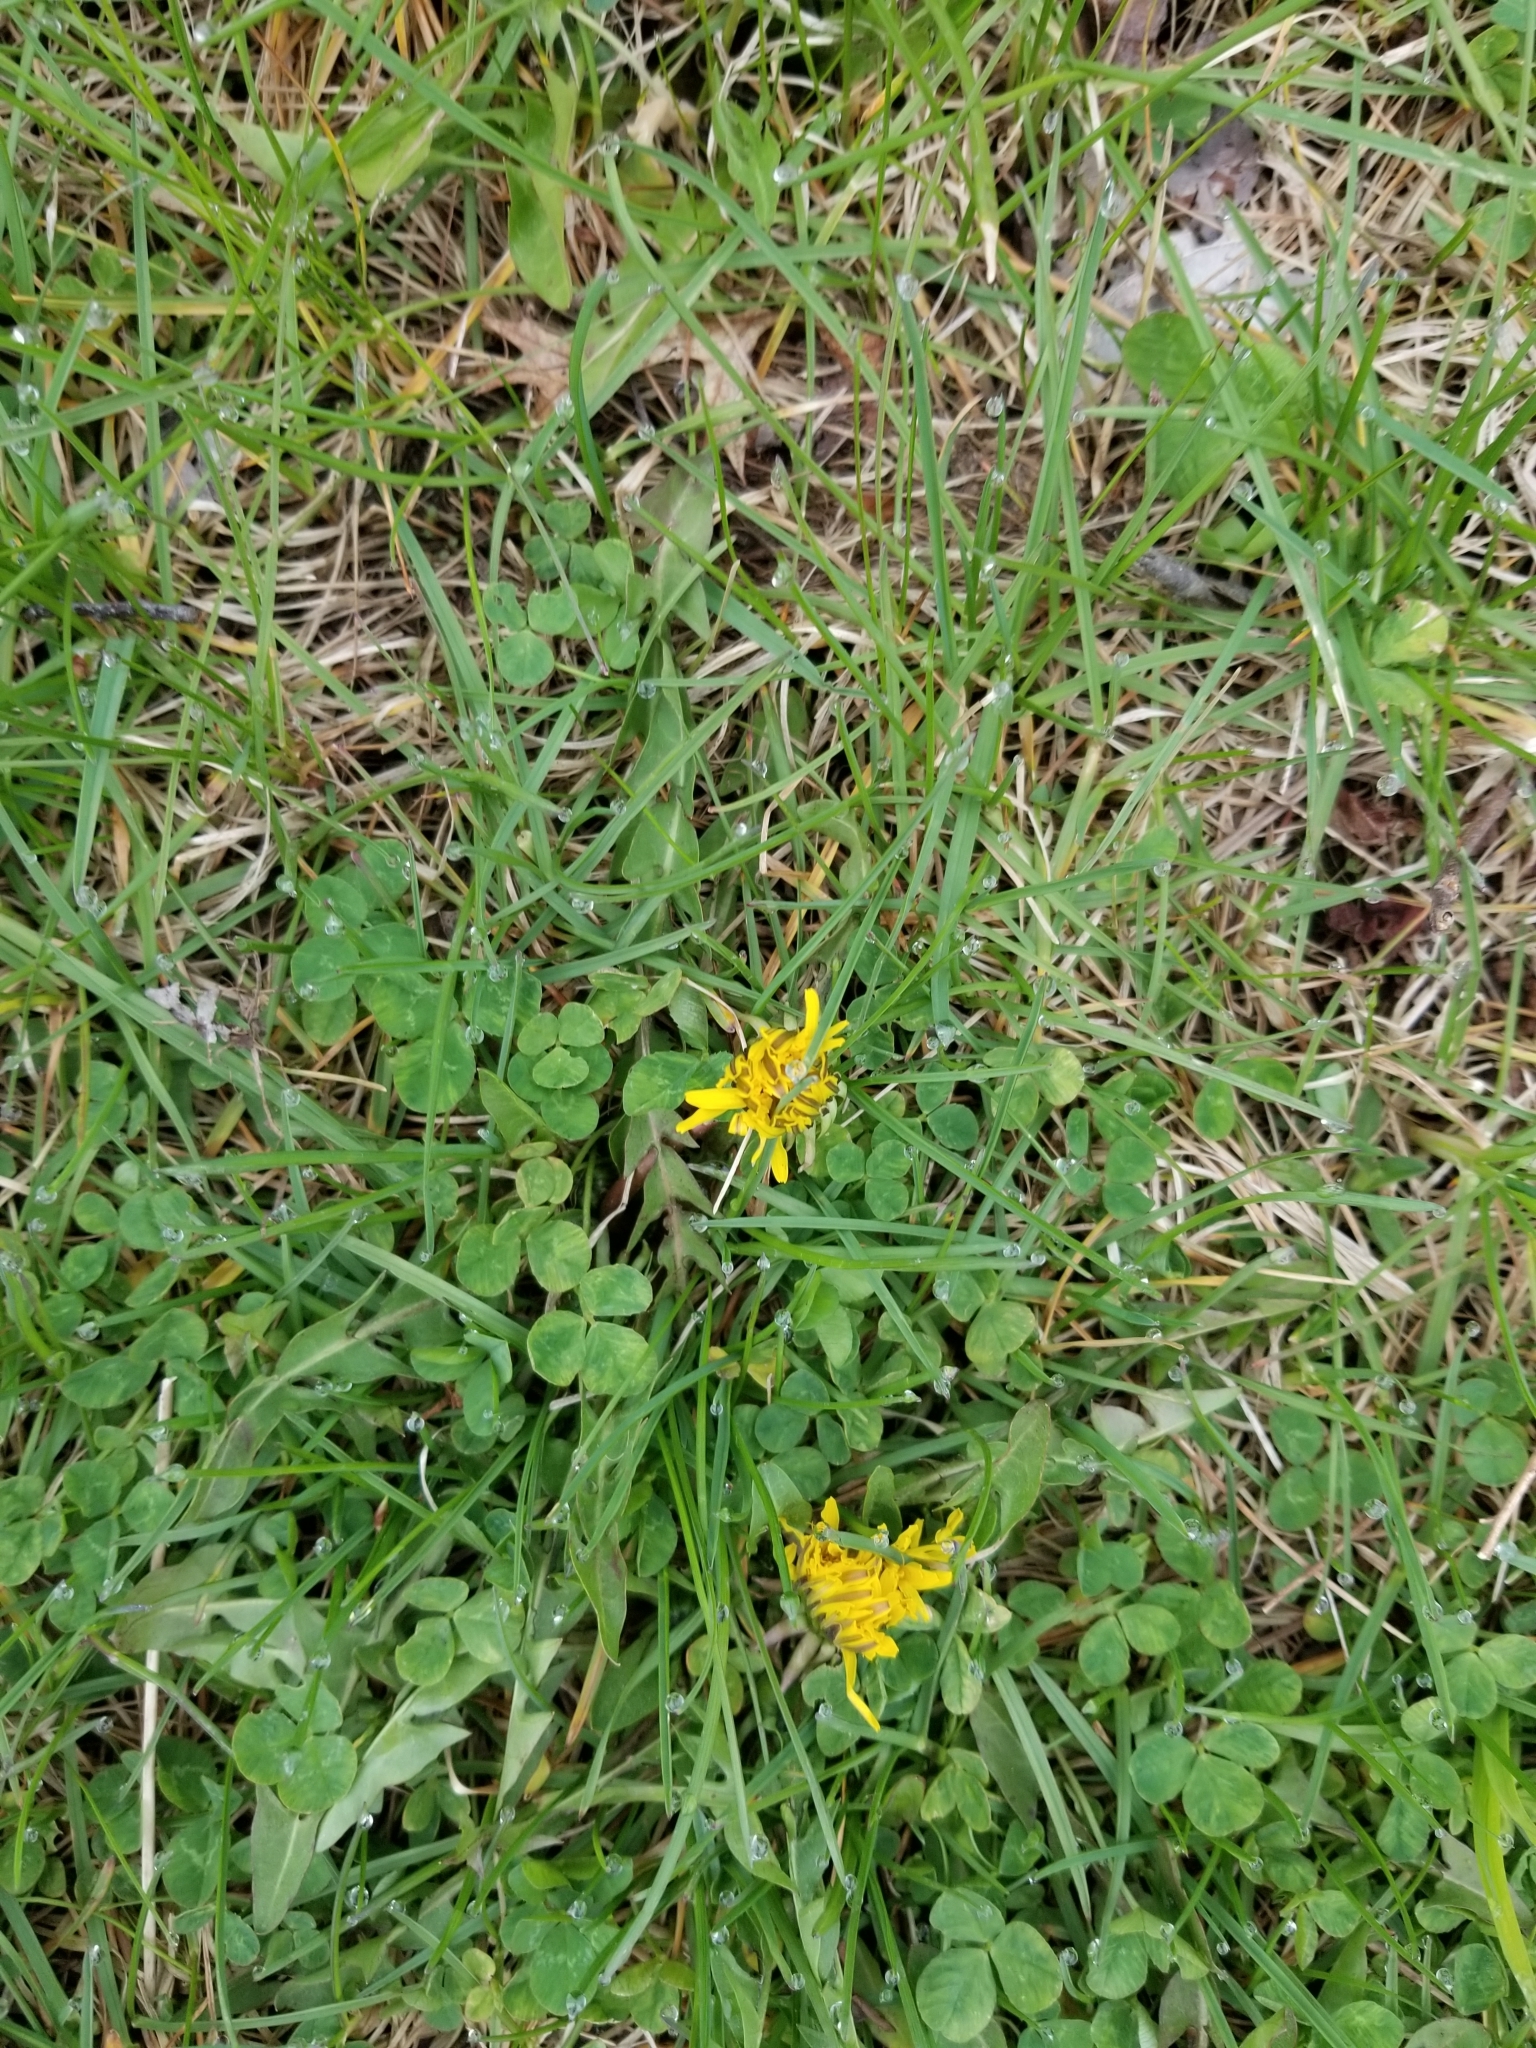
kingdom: Plantae
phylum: Tracheophyta
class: Magnoliopsida
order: Asterales
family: Asteraceae
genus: Taraxacum
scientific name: Taraxacum officinale
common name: Common dandelion
